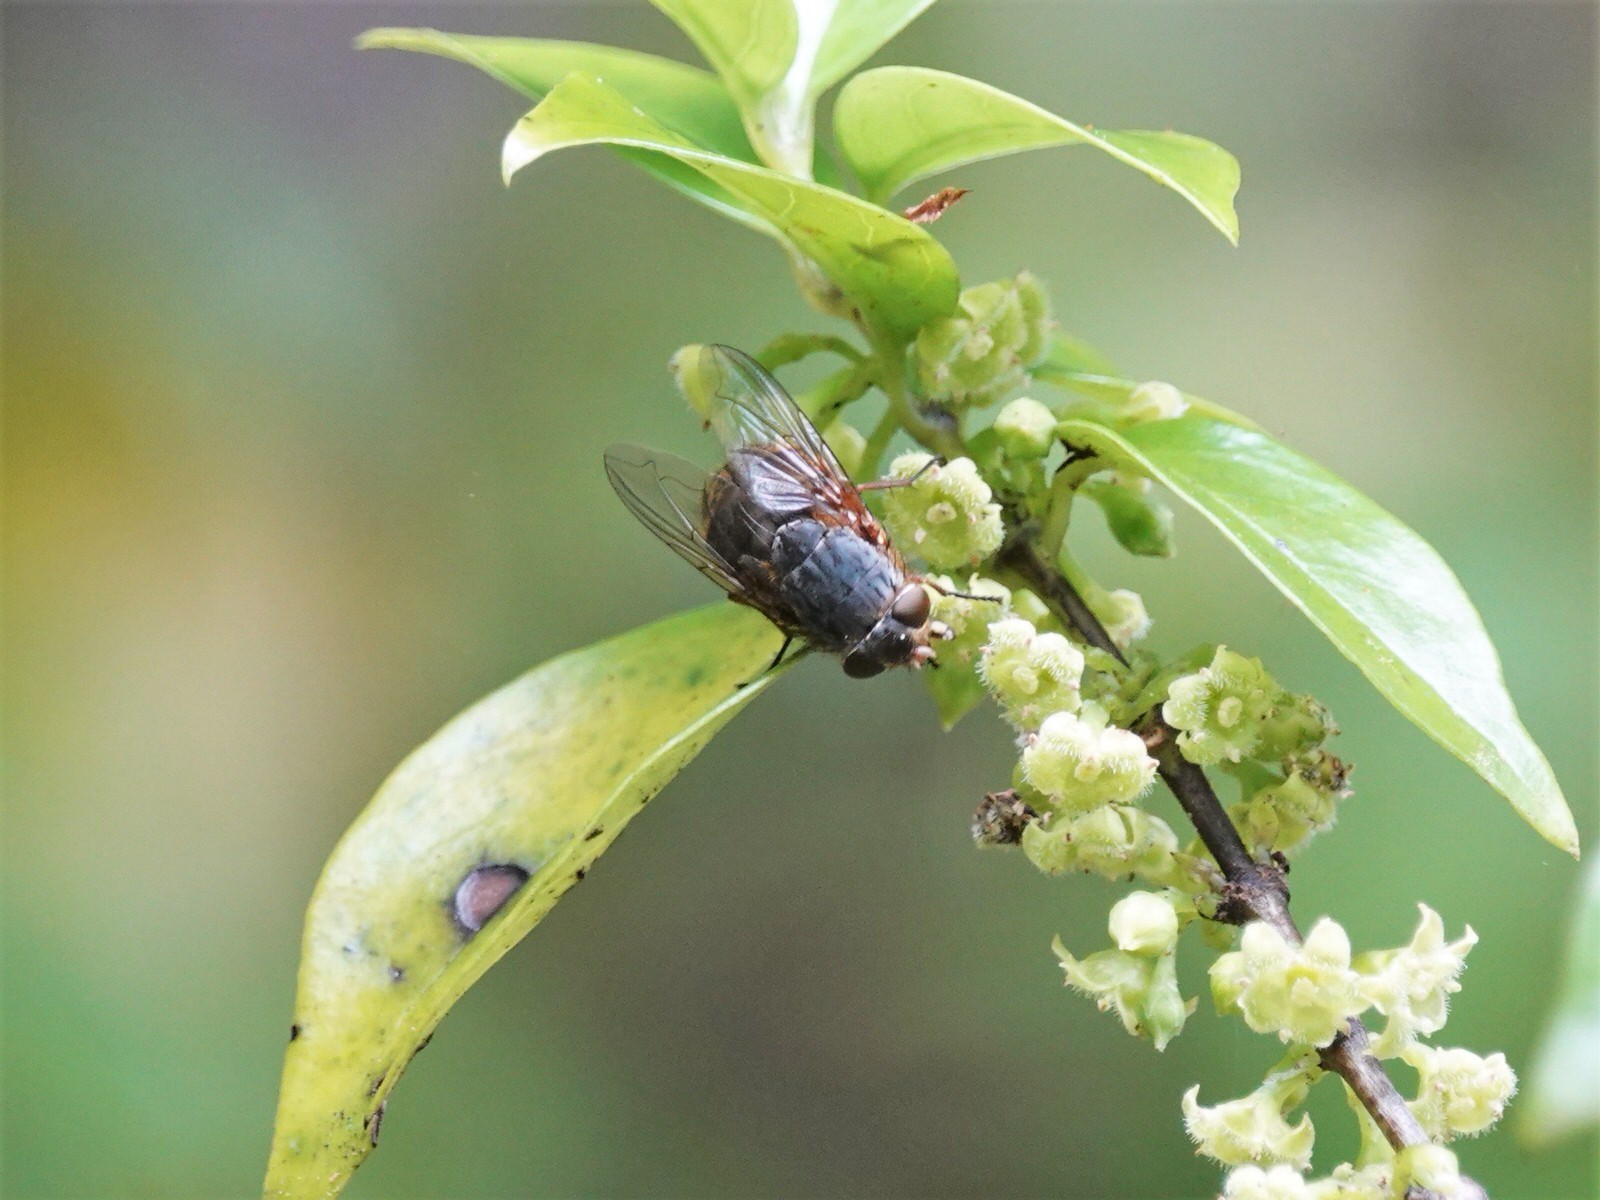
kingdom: Animalia
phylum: Arthropoda
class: Insecta
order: Diptera
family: Calliphoridae
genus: Calliphora
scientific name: Calliphora stygia
